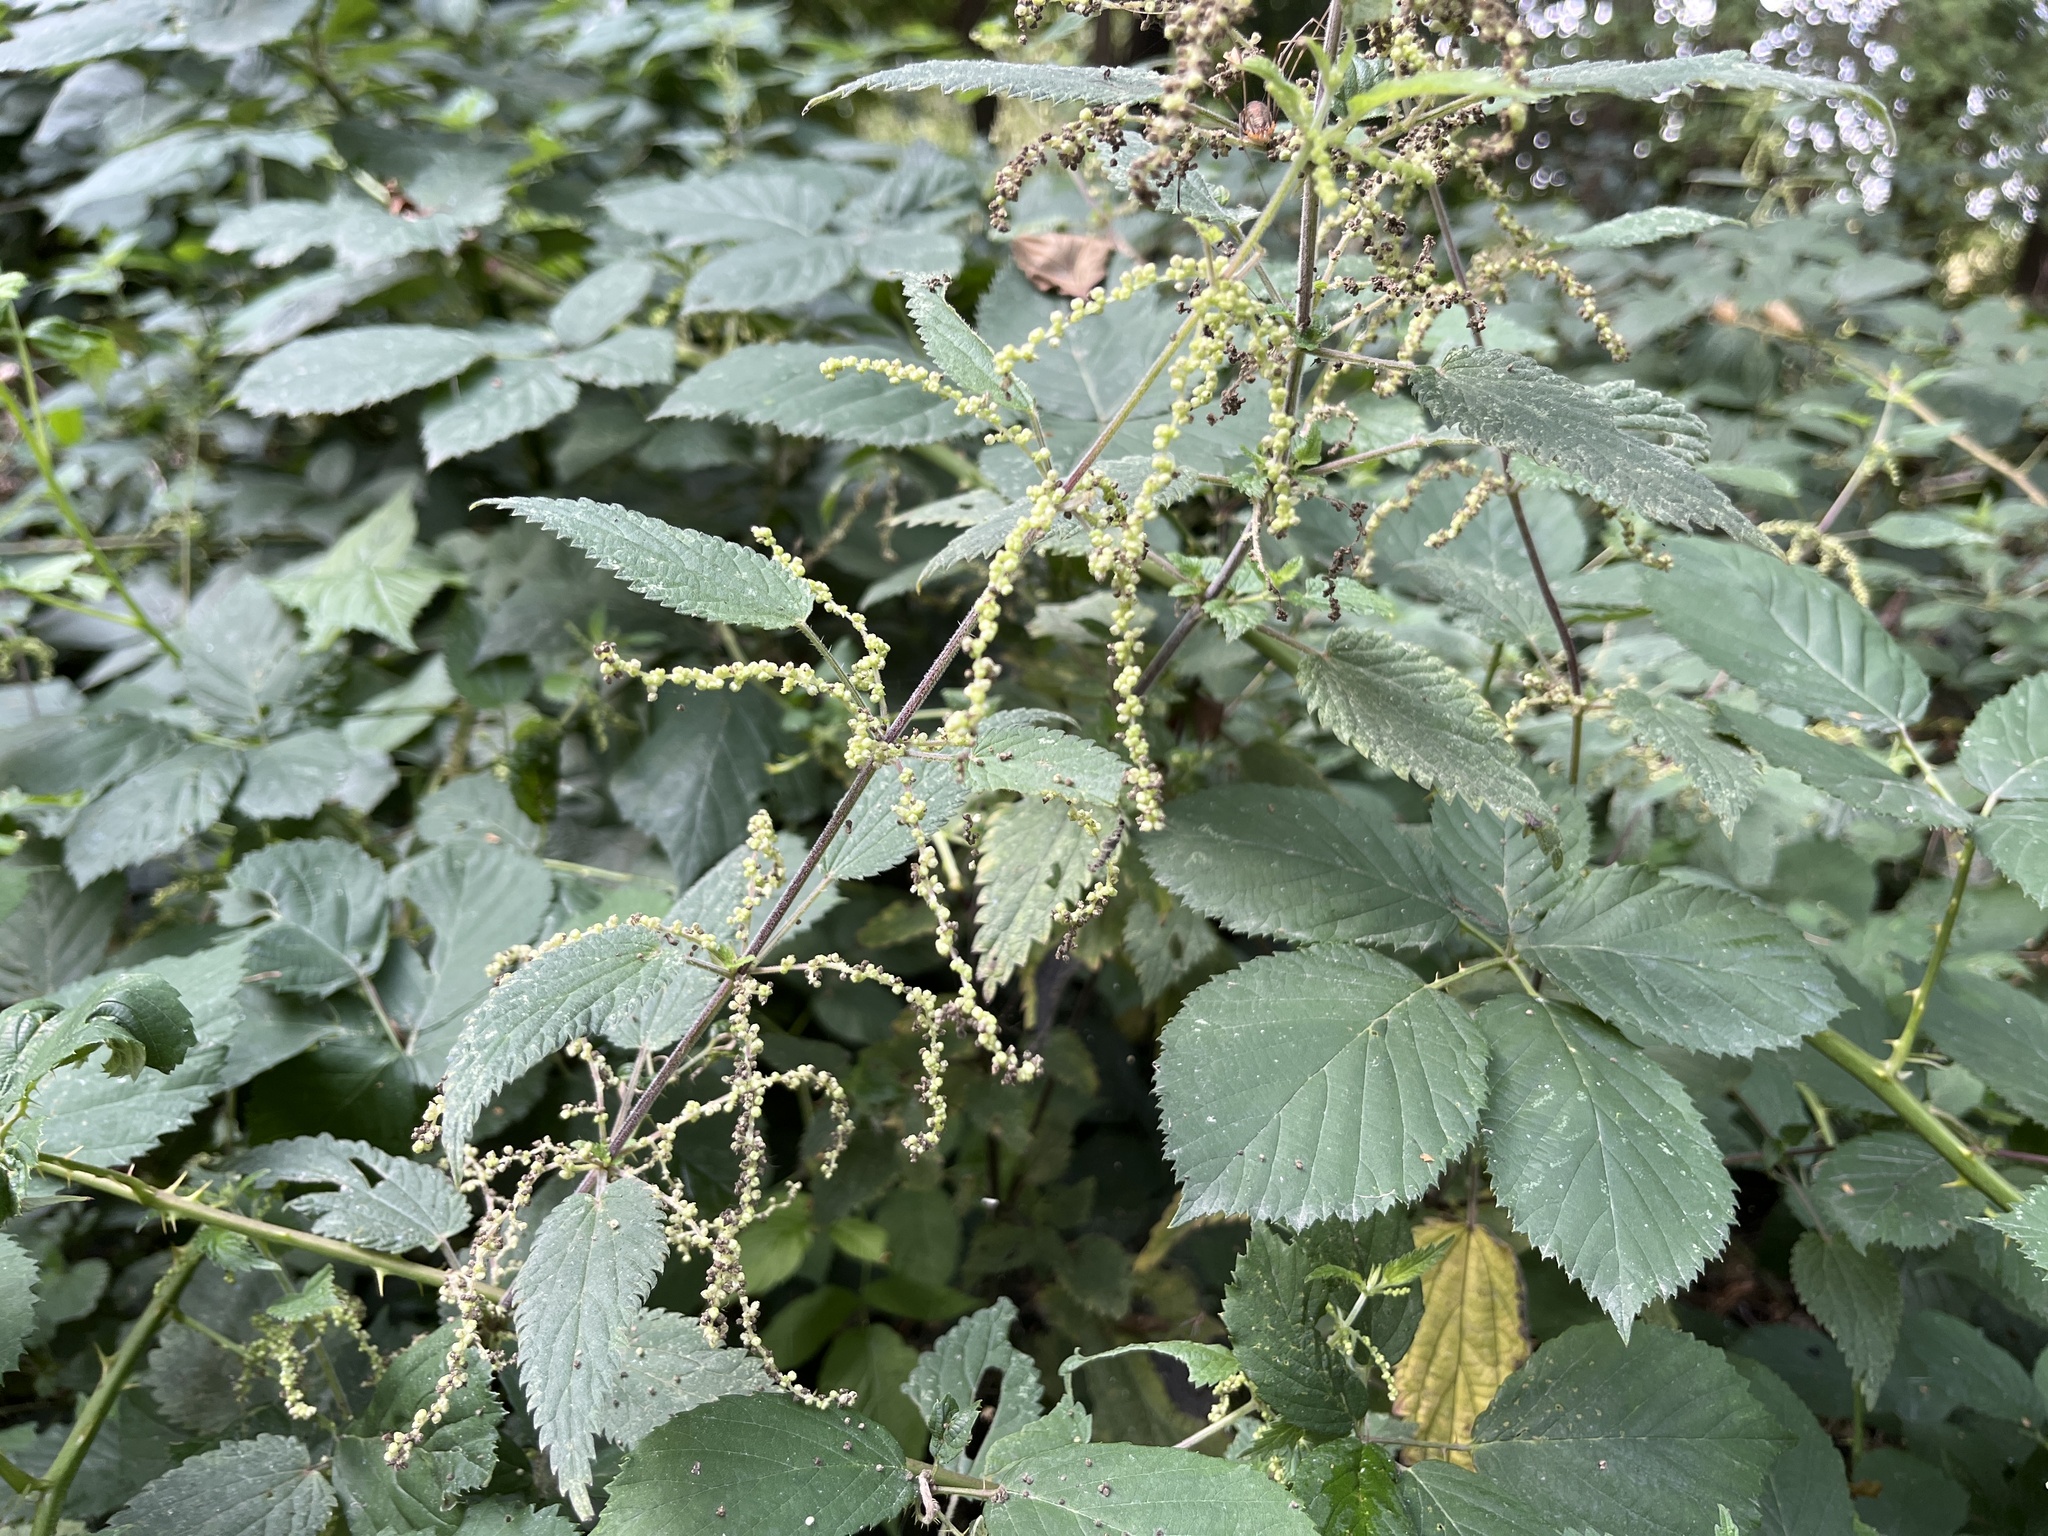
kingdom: Plantae
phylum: Tracheophyta
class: Magnoliopsida
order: Rosales
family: Urticaceae
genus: Urtica
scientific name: Urtica dioica
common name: Common nettle
